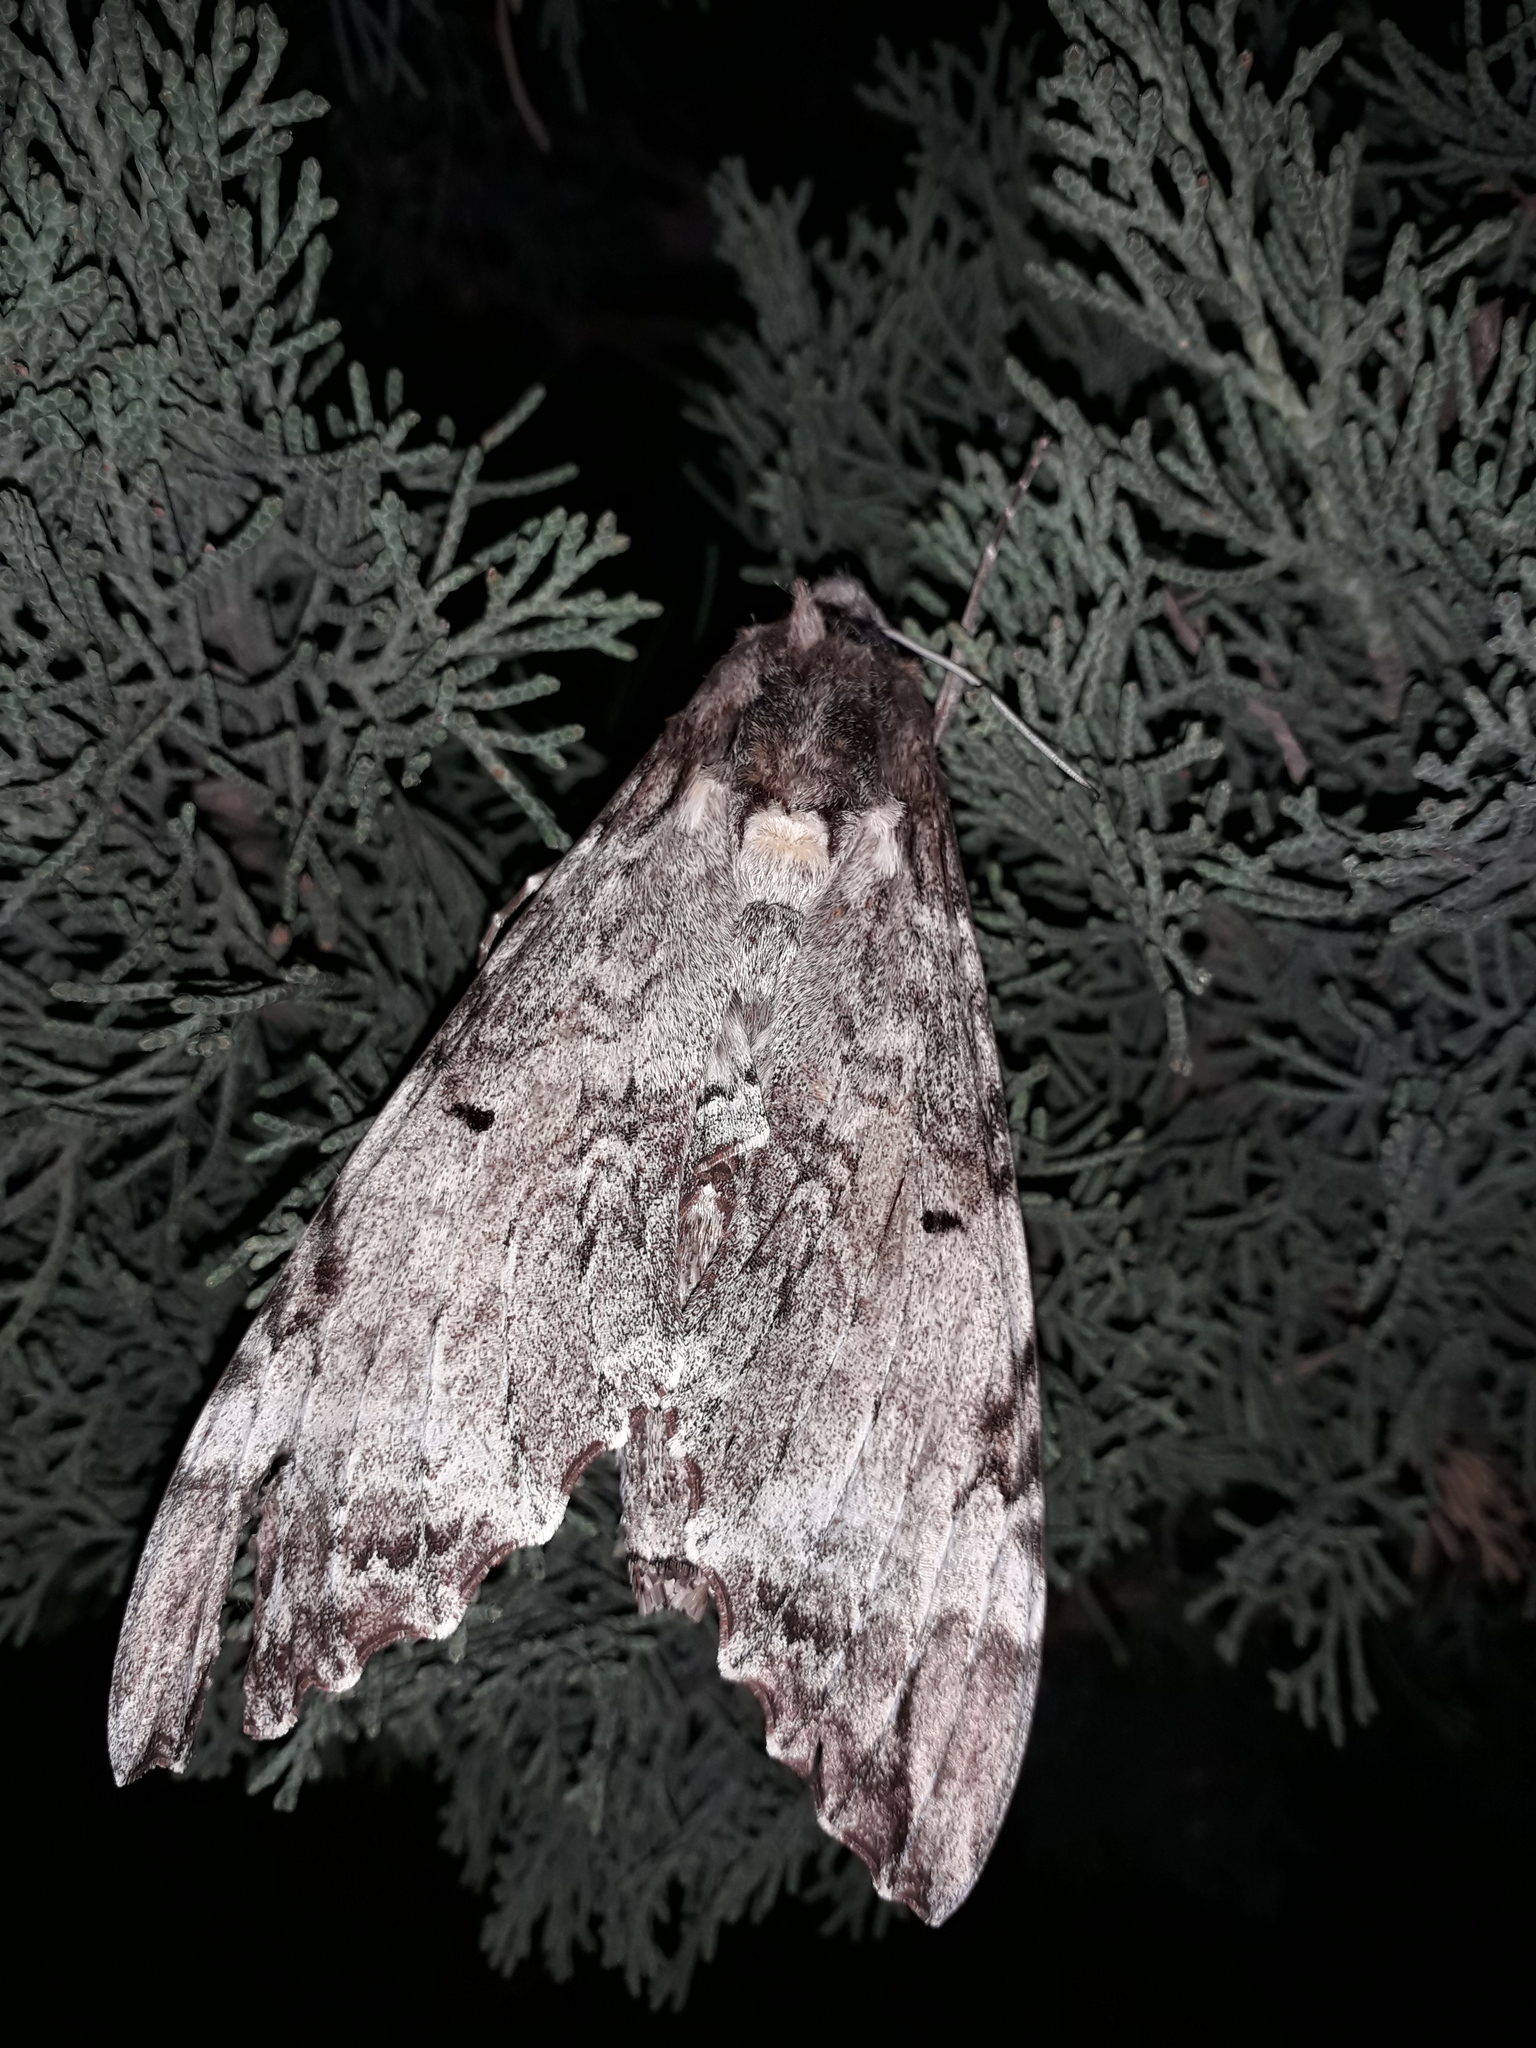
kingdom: Animalia
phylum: Arthropoda
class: Insecta
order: Lepidoptera
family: Sphingidae
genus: Pseudosphinx
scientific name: Pseudosphinx tetrio
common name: Tetrio sphinx
